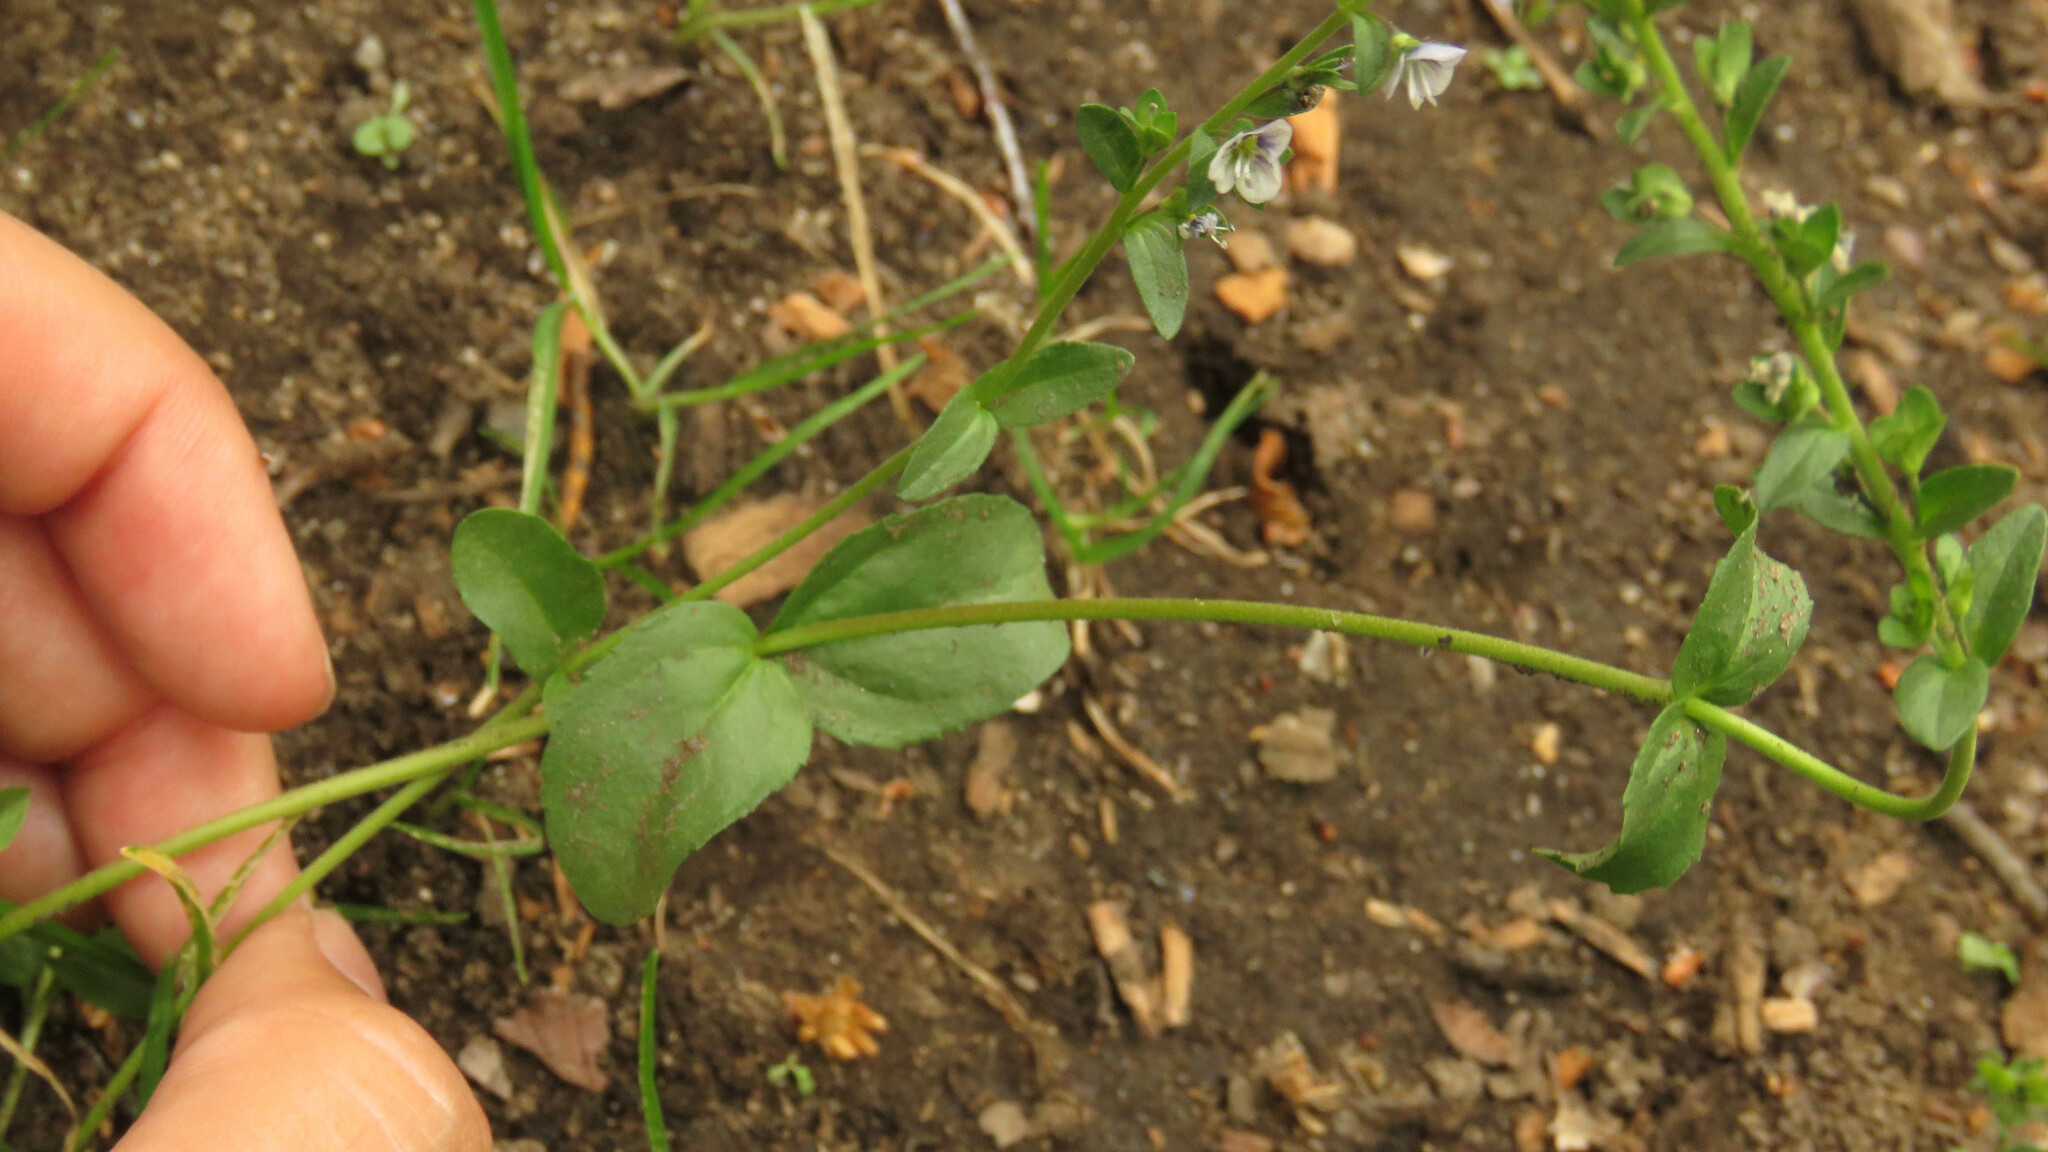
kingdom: Plantae
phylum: Tracheophyta
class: Magnoliopsida
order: Lamiales
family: Plantaginaceae
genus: Veronica
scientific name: Veronica serpyllifolia
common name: Thyme-leaved speedwell
